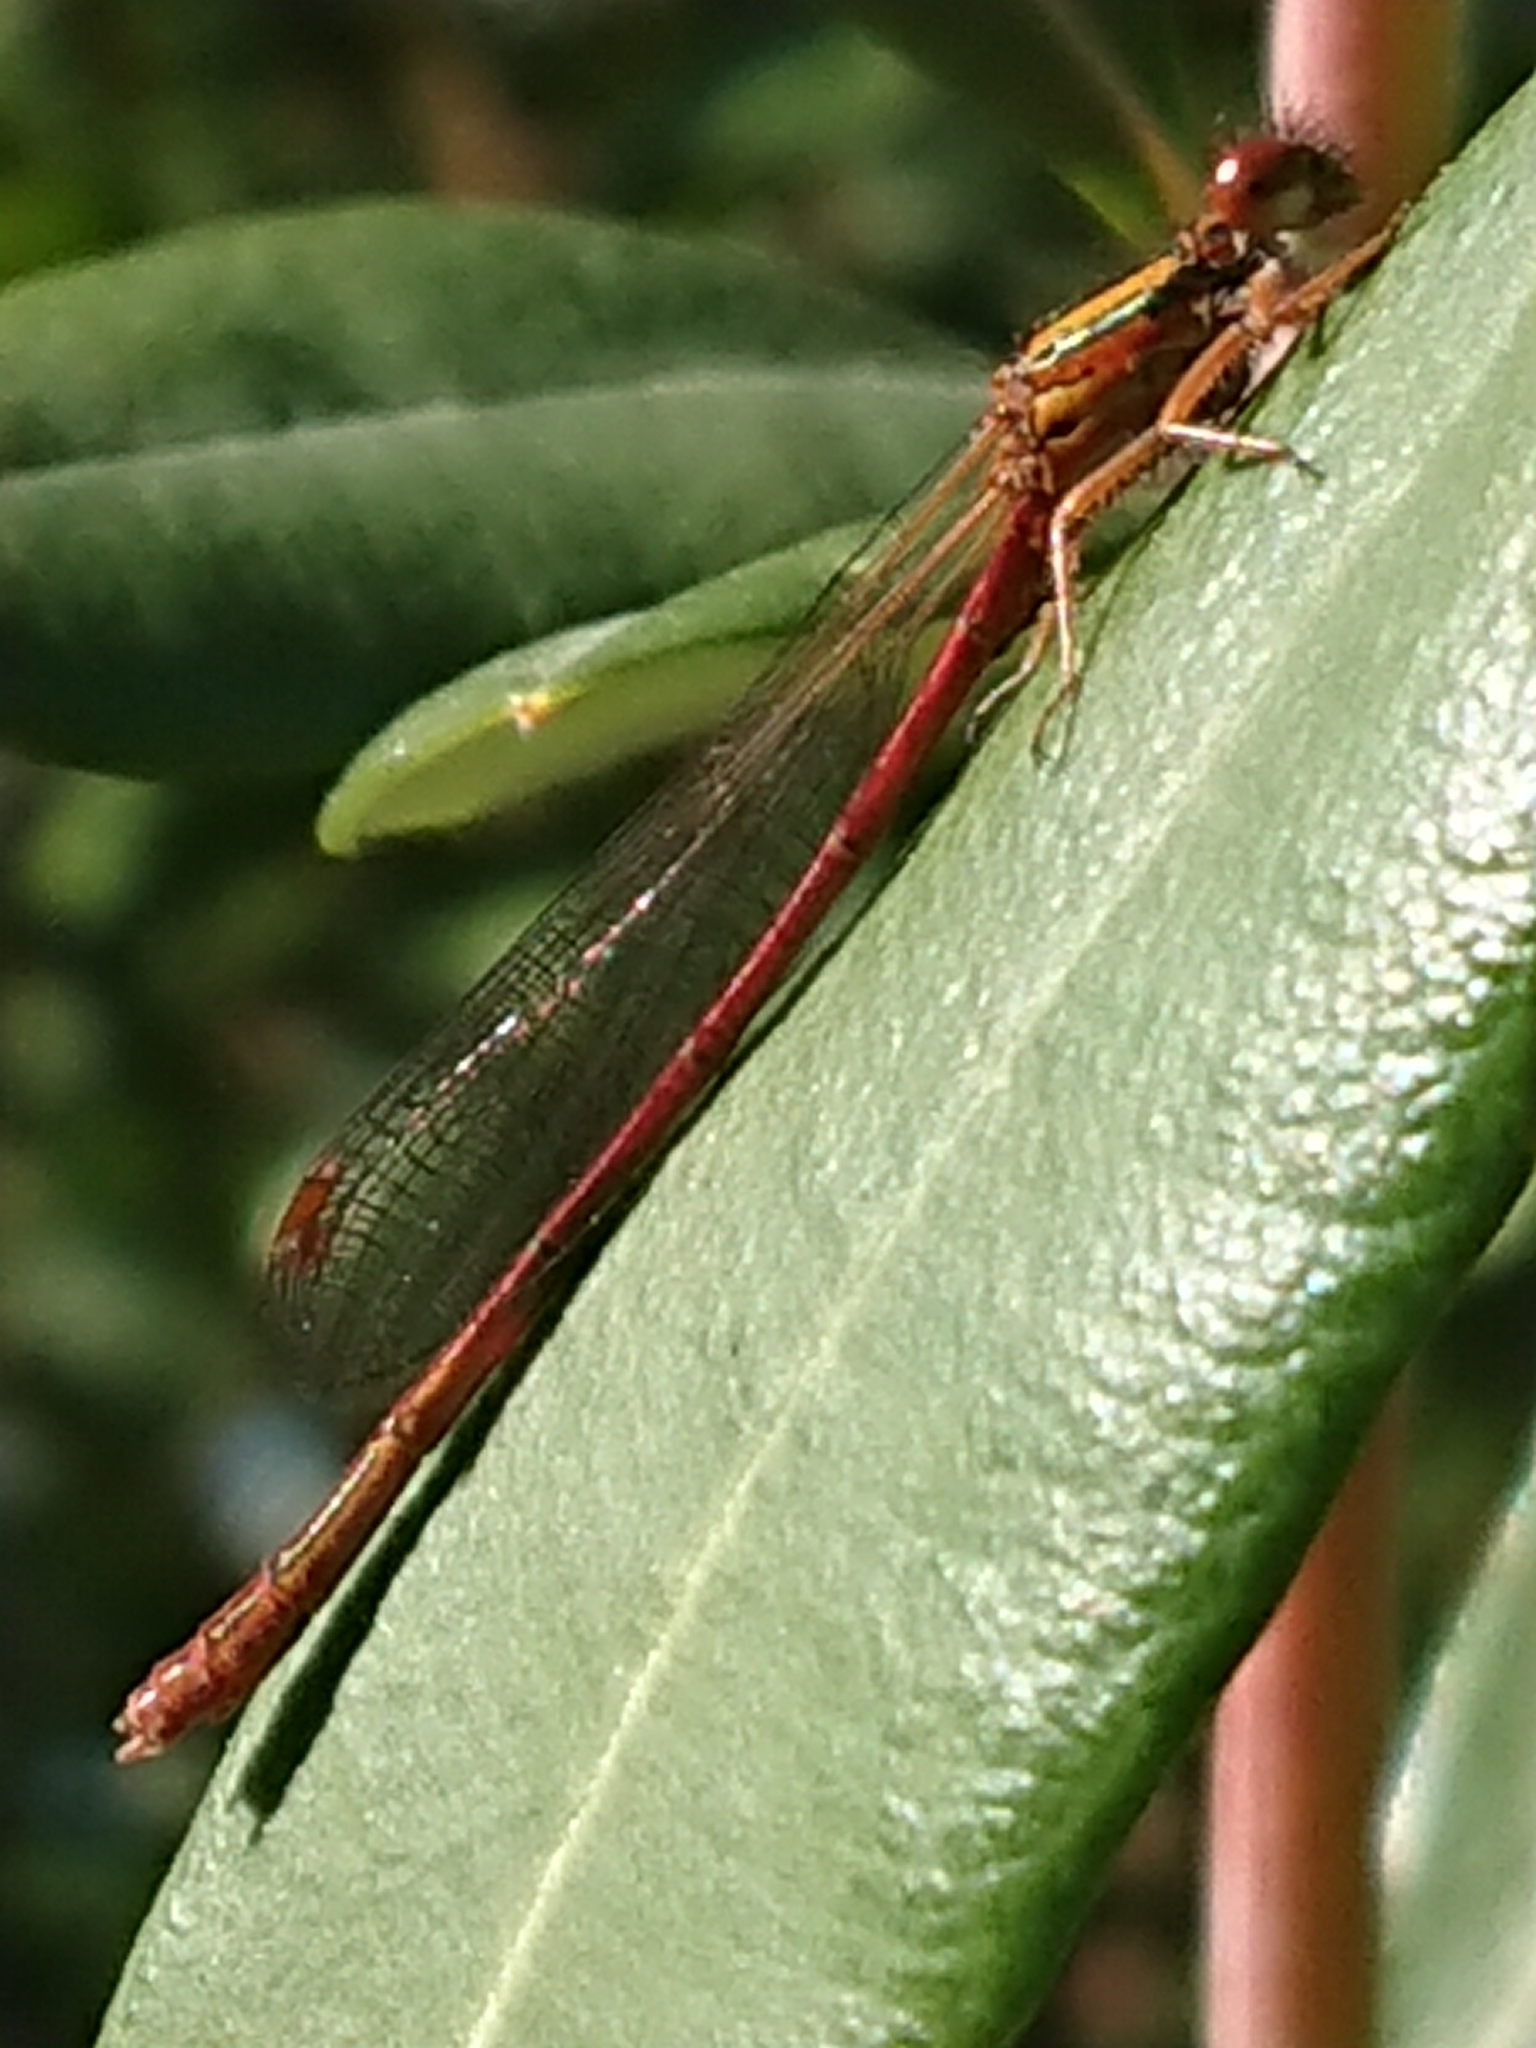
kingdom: Animalia
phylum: Arthropoda
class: Insecta
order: Odonata
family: Coenagrionidae
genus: Xanthocnemis
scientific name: Xanthocnemis zealandica
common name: Common redcoat damselfly
